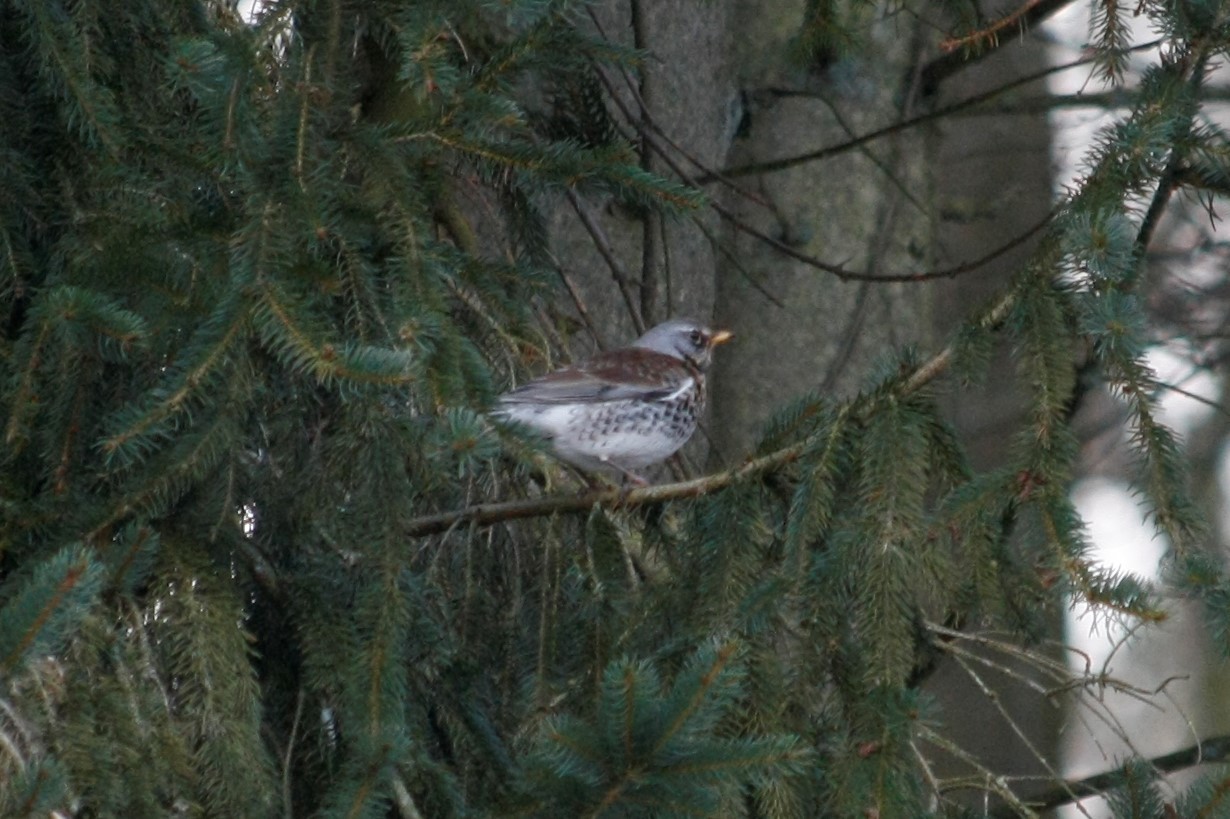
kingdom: Animalia
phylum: Chordata
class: Aves
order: Passeriformes
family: Turdidae
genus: Turdus
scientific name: Turdus pilaris
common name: Fieldfare
